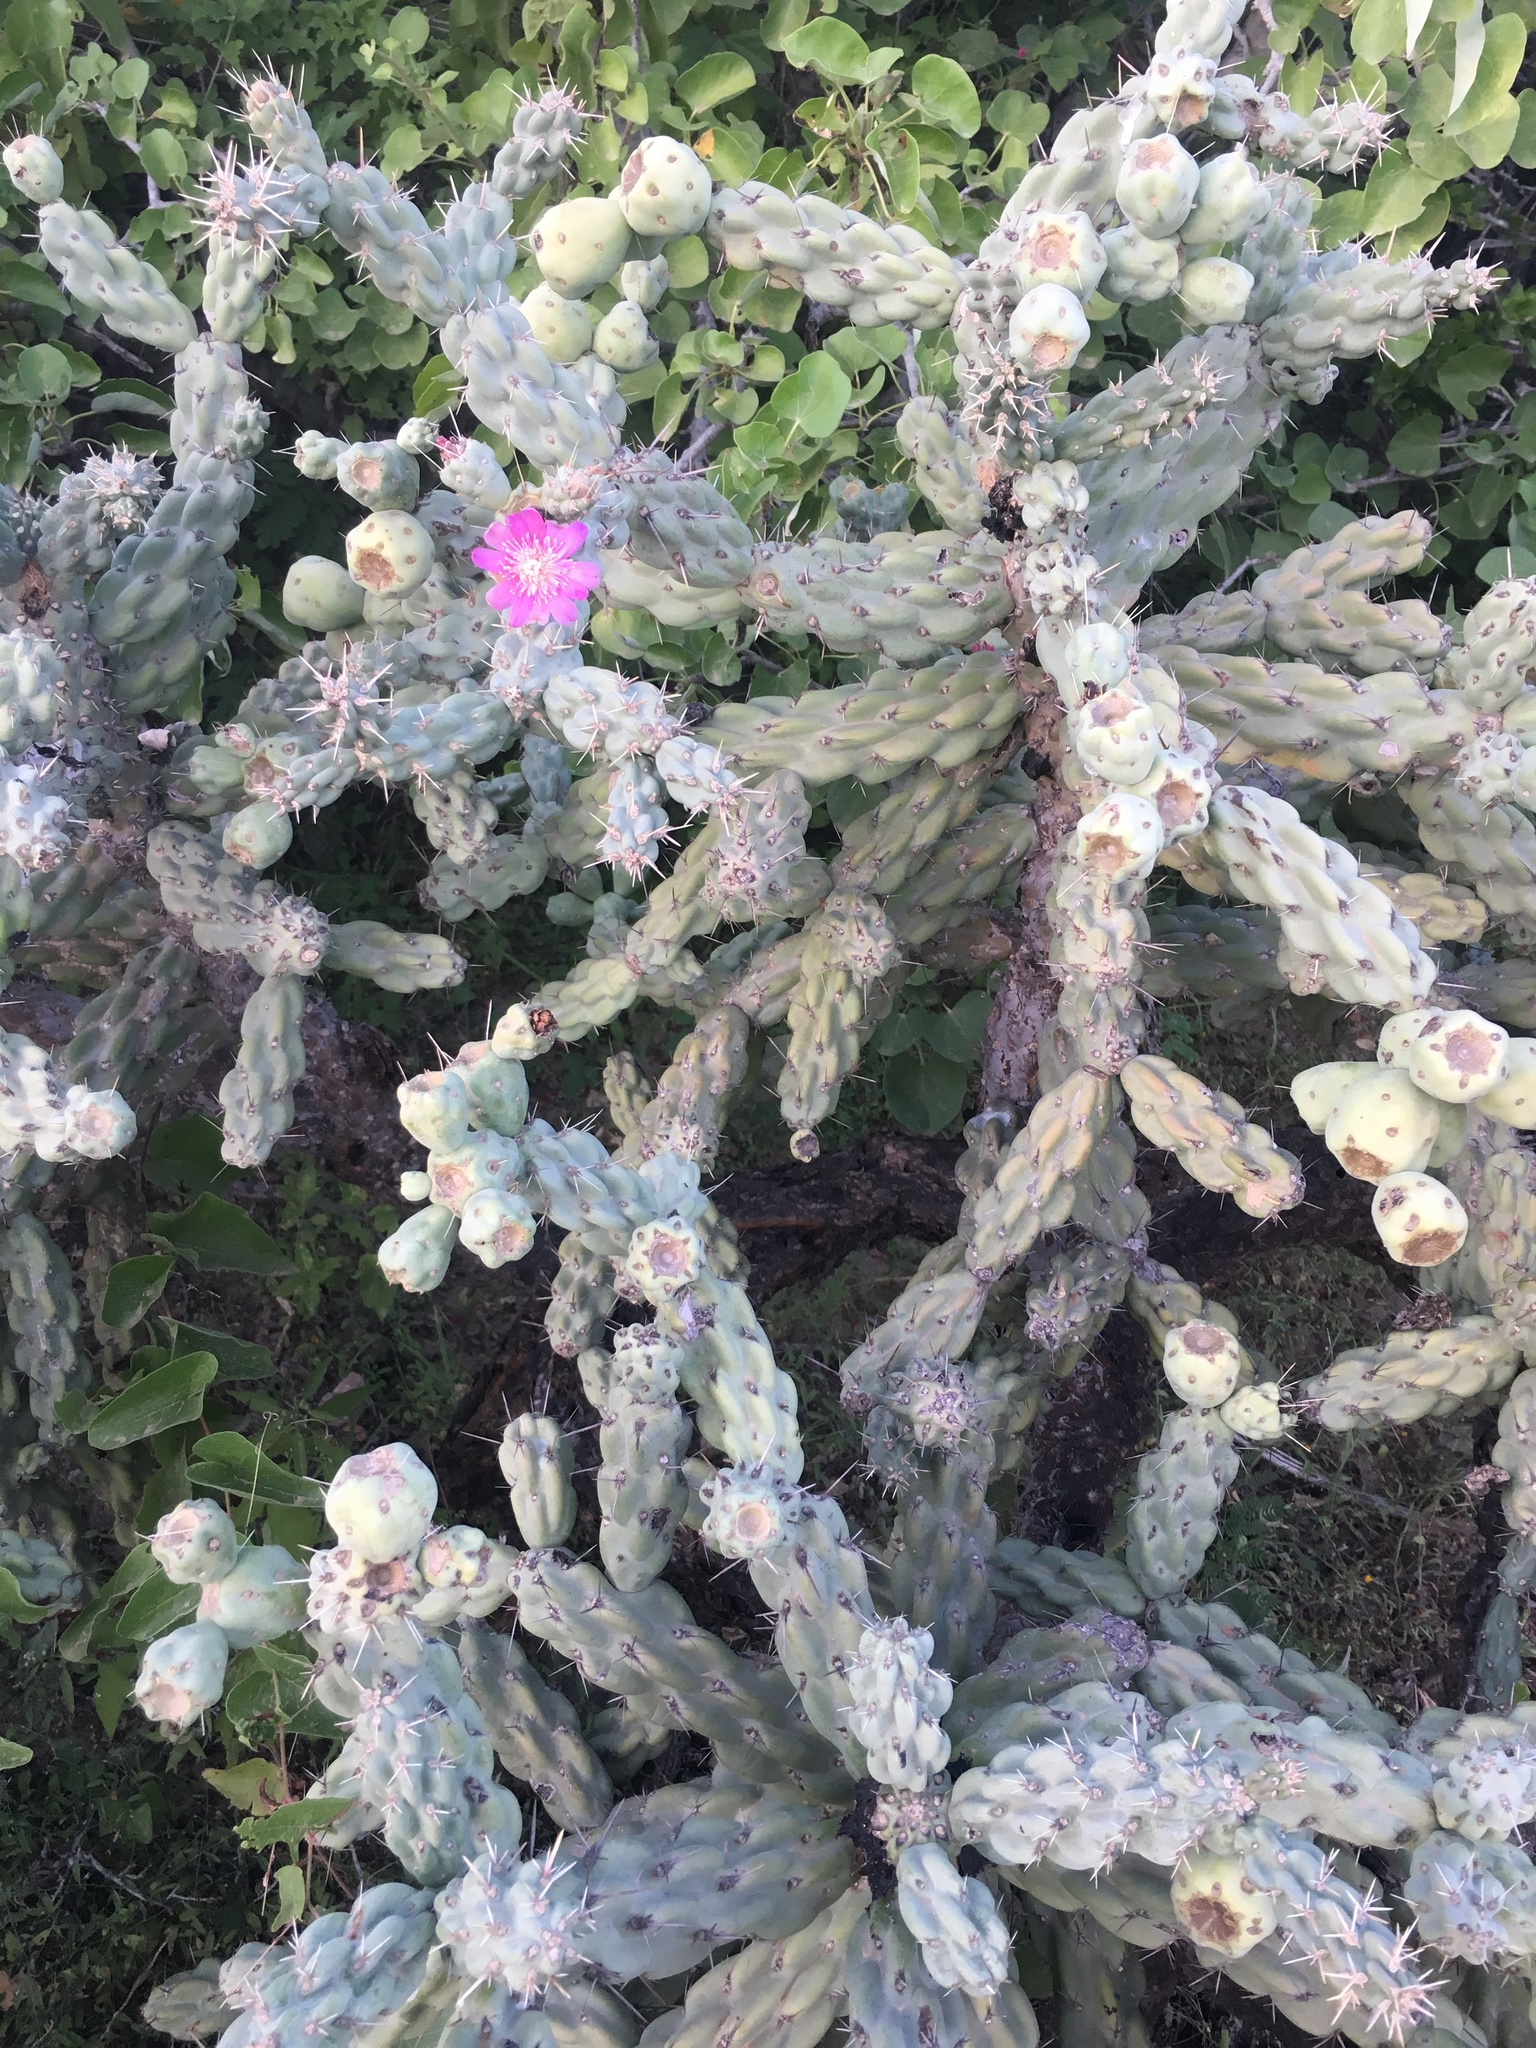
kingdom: Plantae
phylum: Tracheophyta
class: Magnoliopsida
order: Caryophyllales
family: Cactaceae
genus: Cylindropuntia
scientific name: Cylindropuntia cholla
